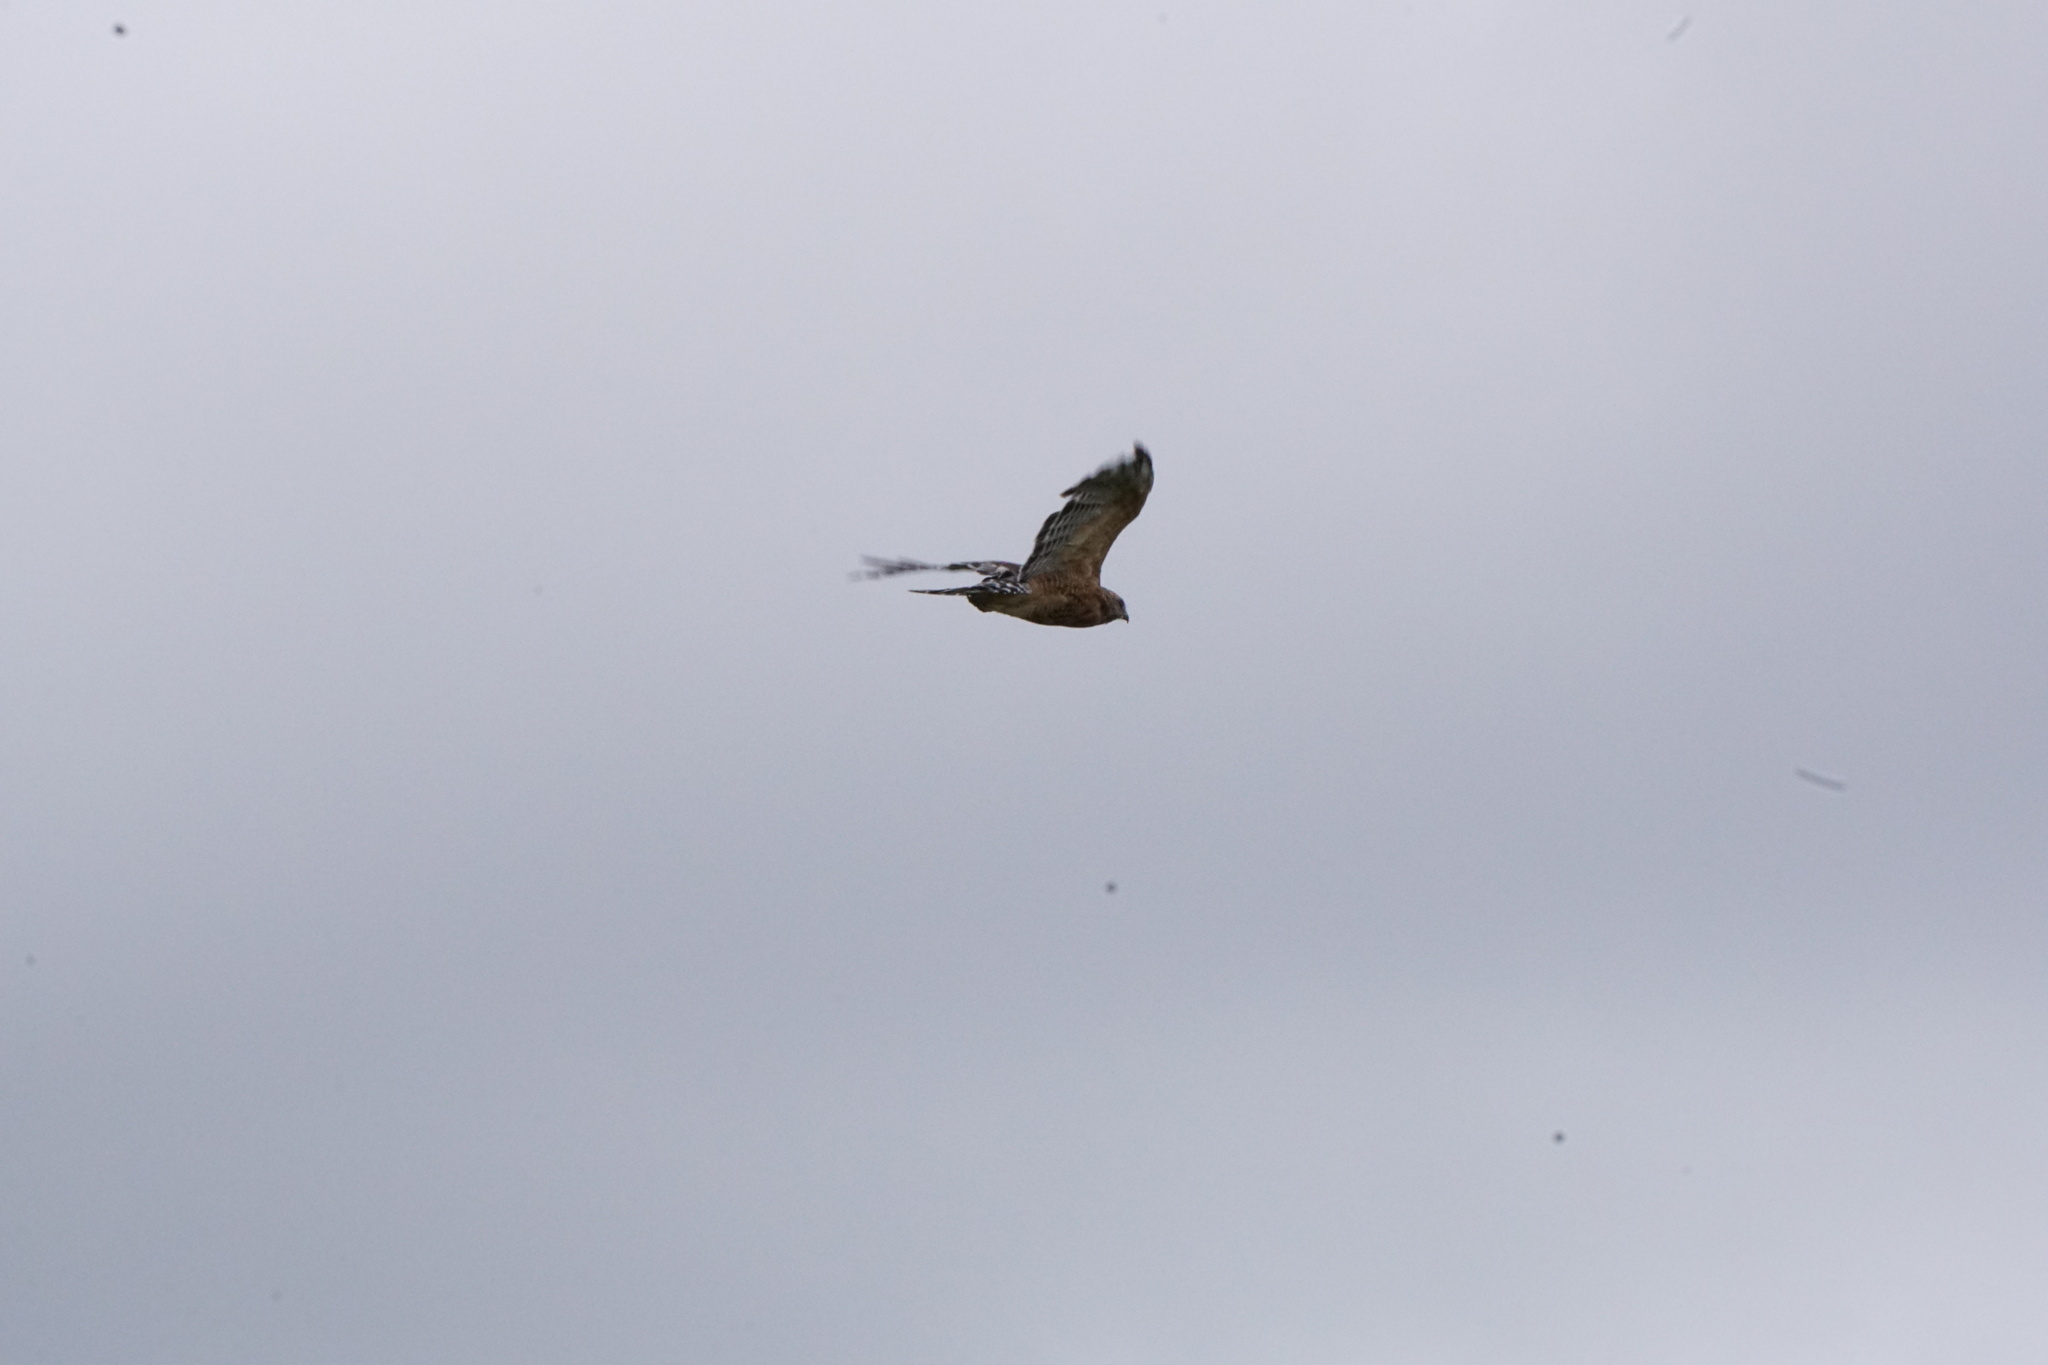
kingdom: Animalia
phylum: Chordata
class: Aves
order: Accipitriformes
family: Accipitridae
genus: Buteo
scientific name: Buteo lineatus
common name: Red-shouldered hawk
